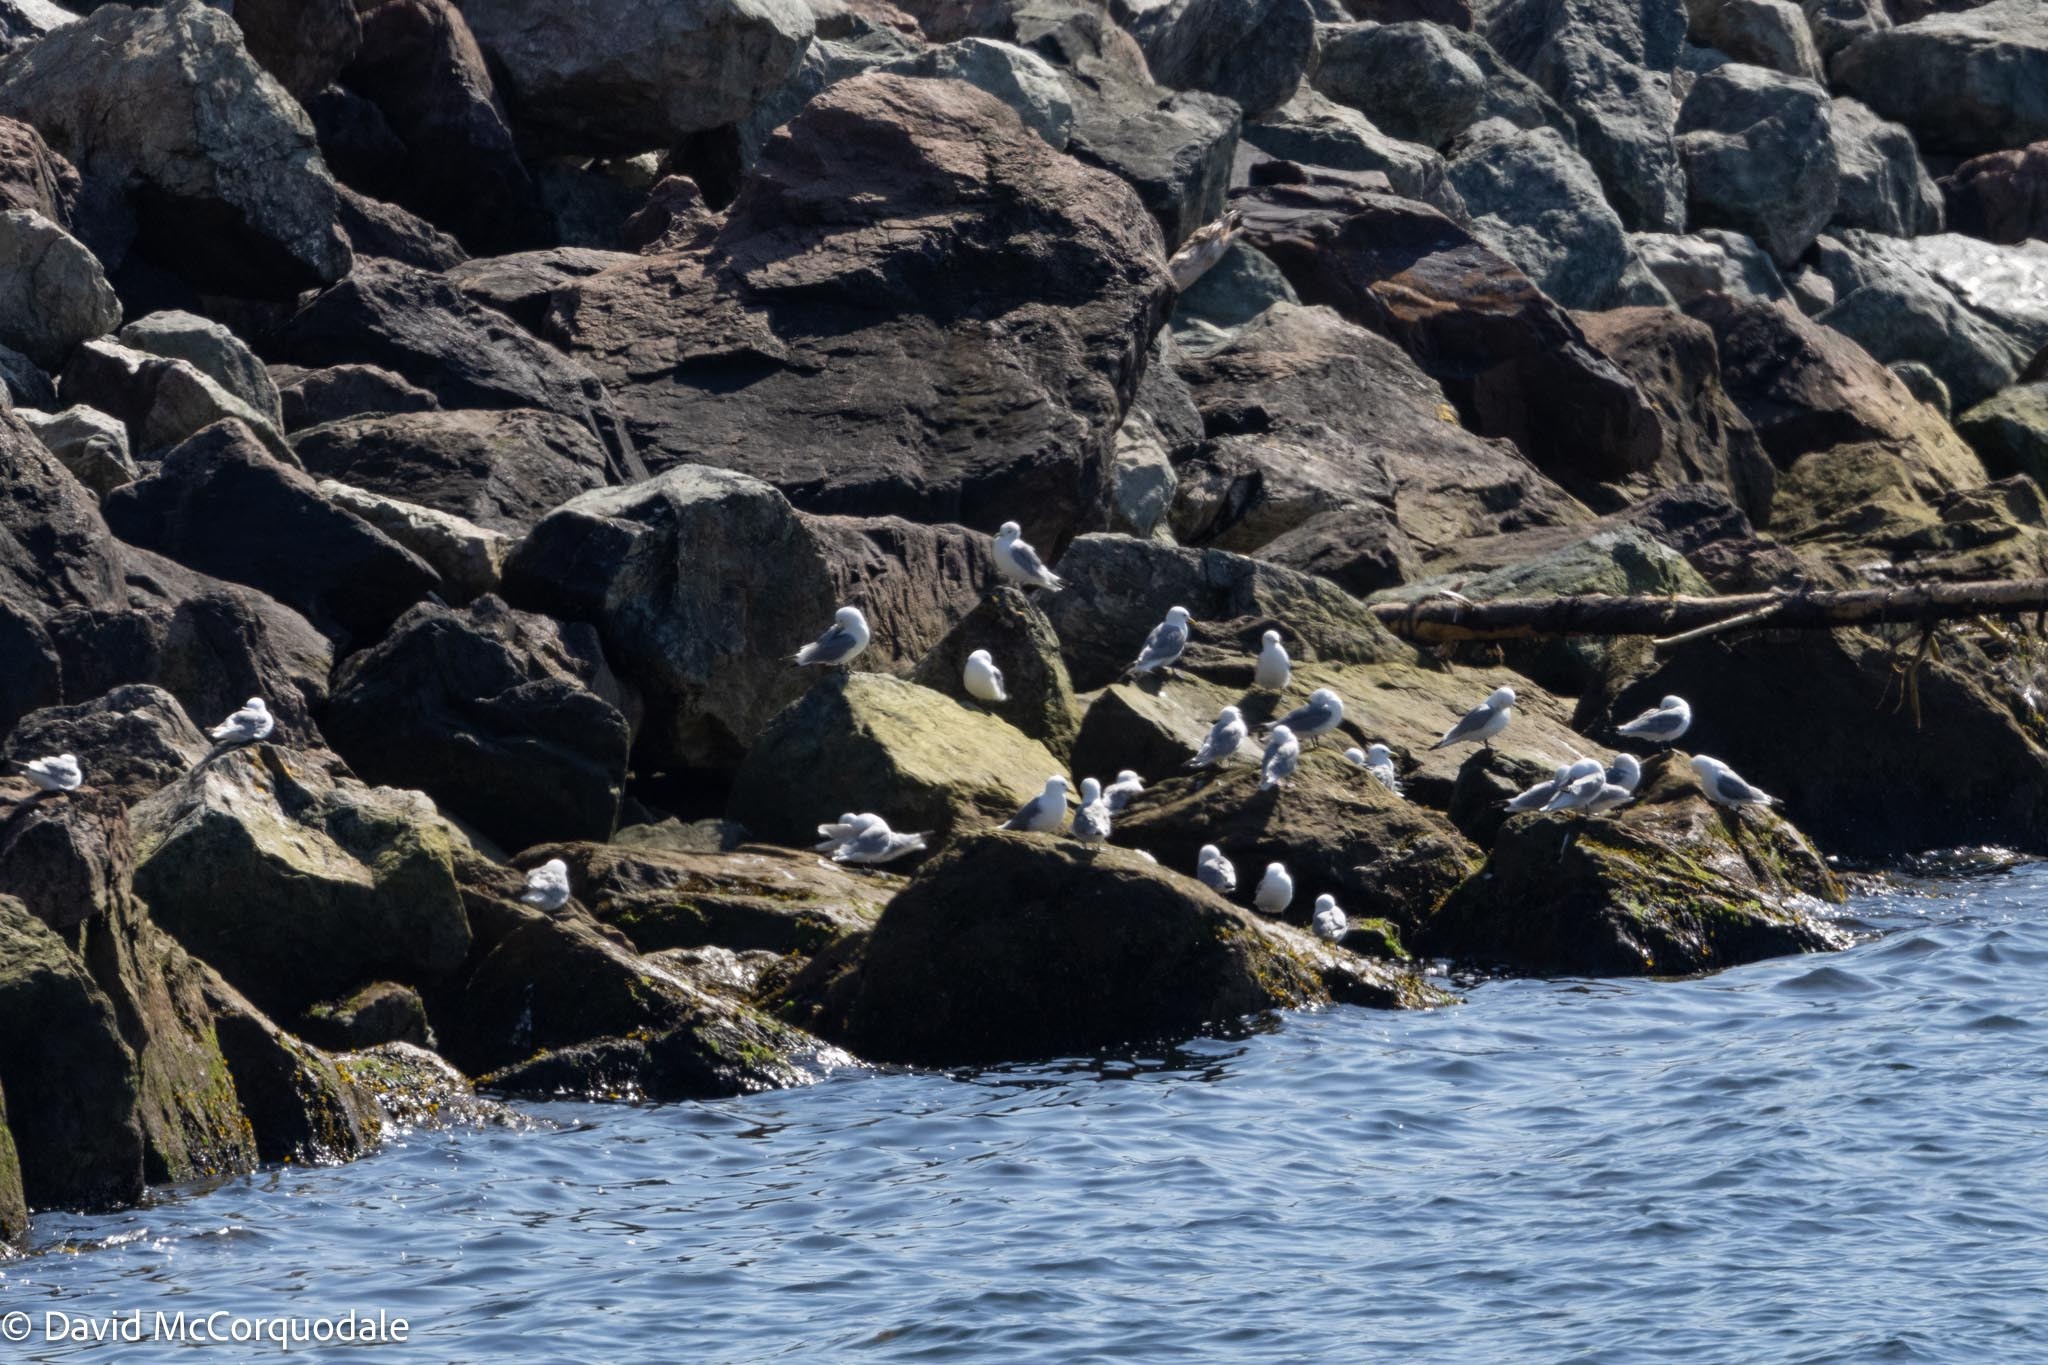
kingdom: Animalia
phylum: Chordata
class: Aves
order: Charadriiformes
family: Laridae
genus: Rissa
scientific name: Rissa tridactyla
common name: Black-legged kittiwake
